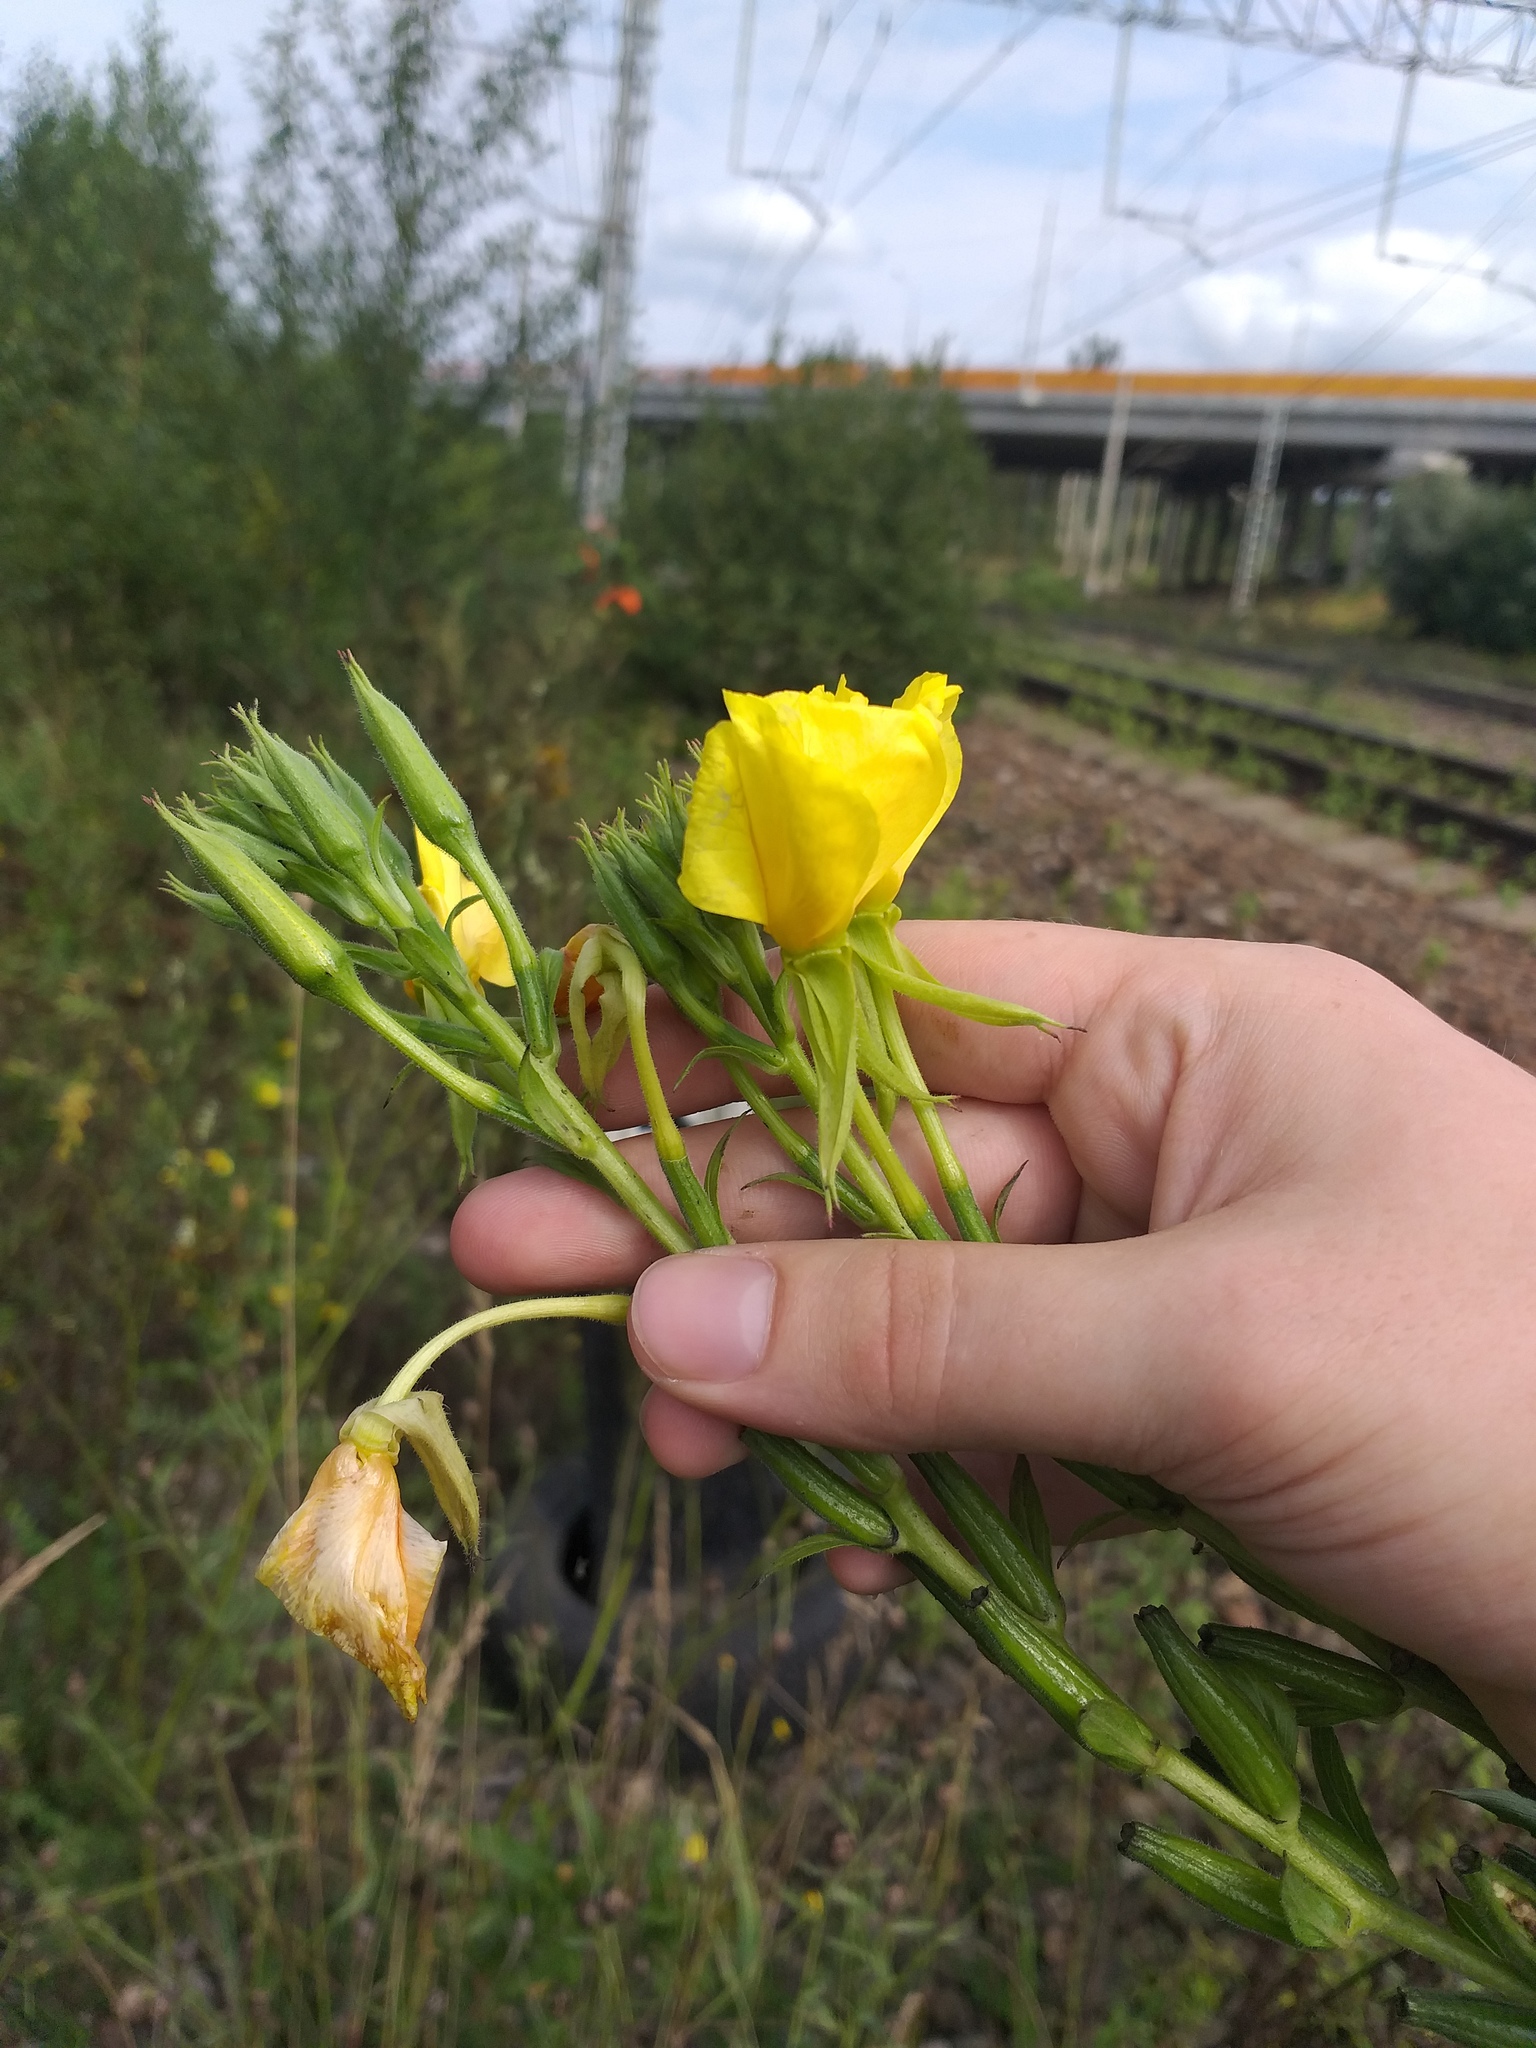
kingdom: Plantae
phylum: Tracheophyta
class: Magnoliopsida
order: Myrtales
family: Onagraceae
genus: Oenothera
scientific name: Oenothera biennis
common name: Common evening-primrose
